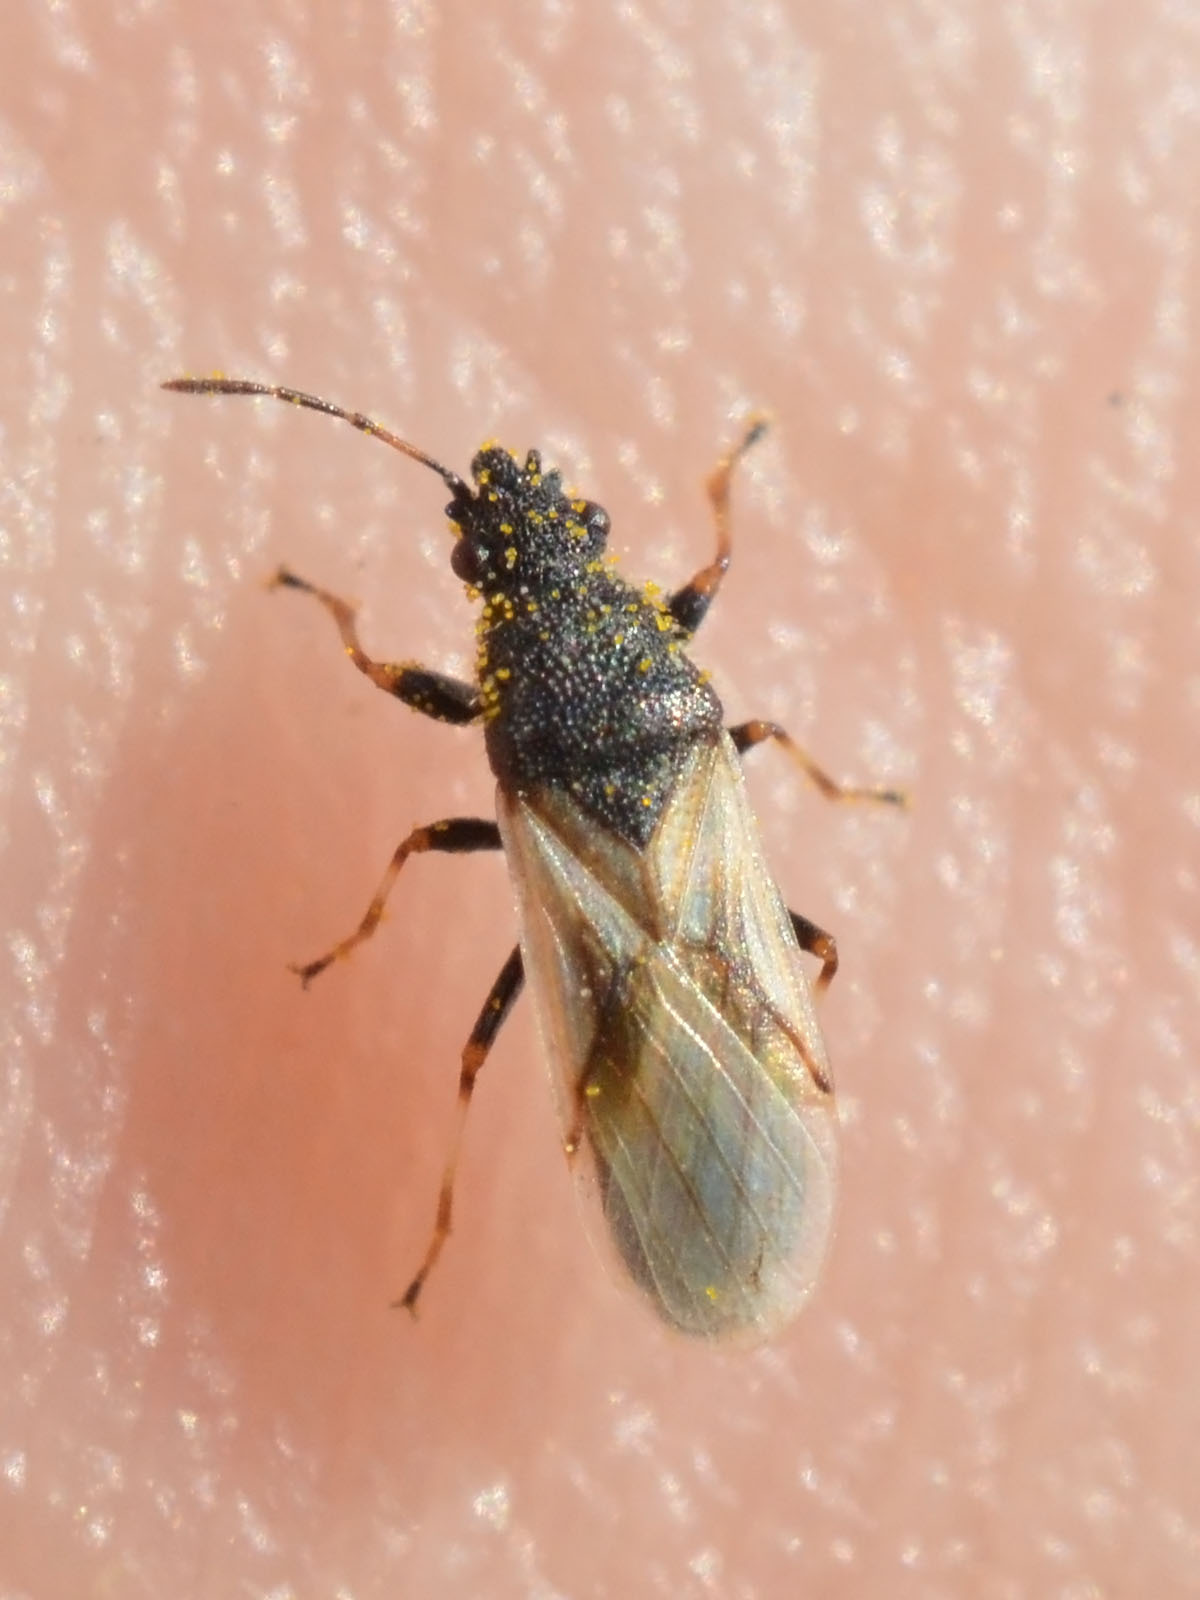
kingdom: Animalia
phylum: Arthropoda
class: Insecta
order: Hemiptera
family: Oxycarenidae
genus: Metopoplax
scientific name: Metopoplax origani
